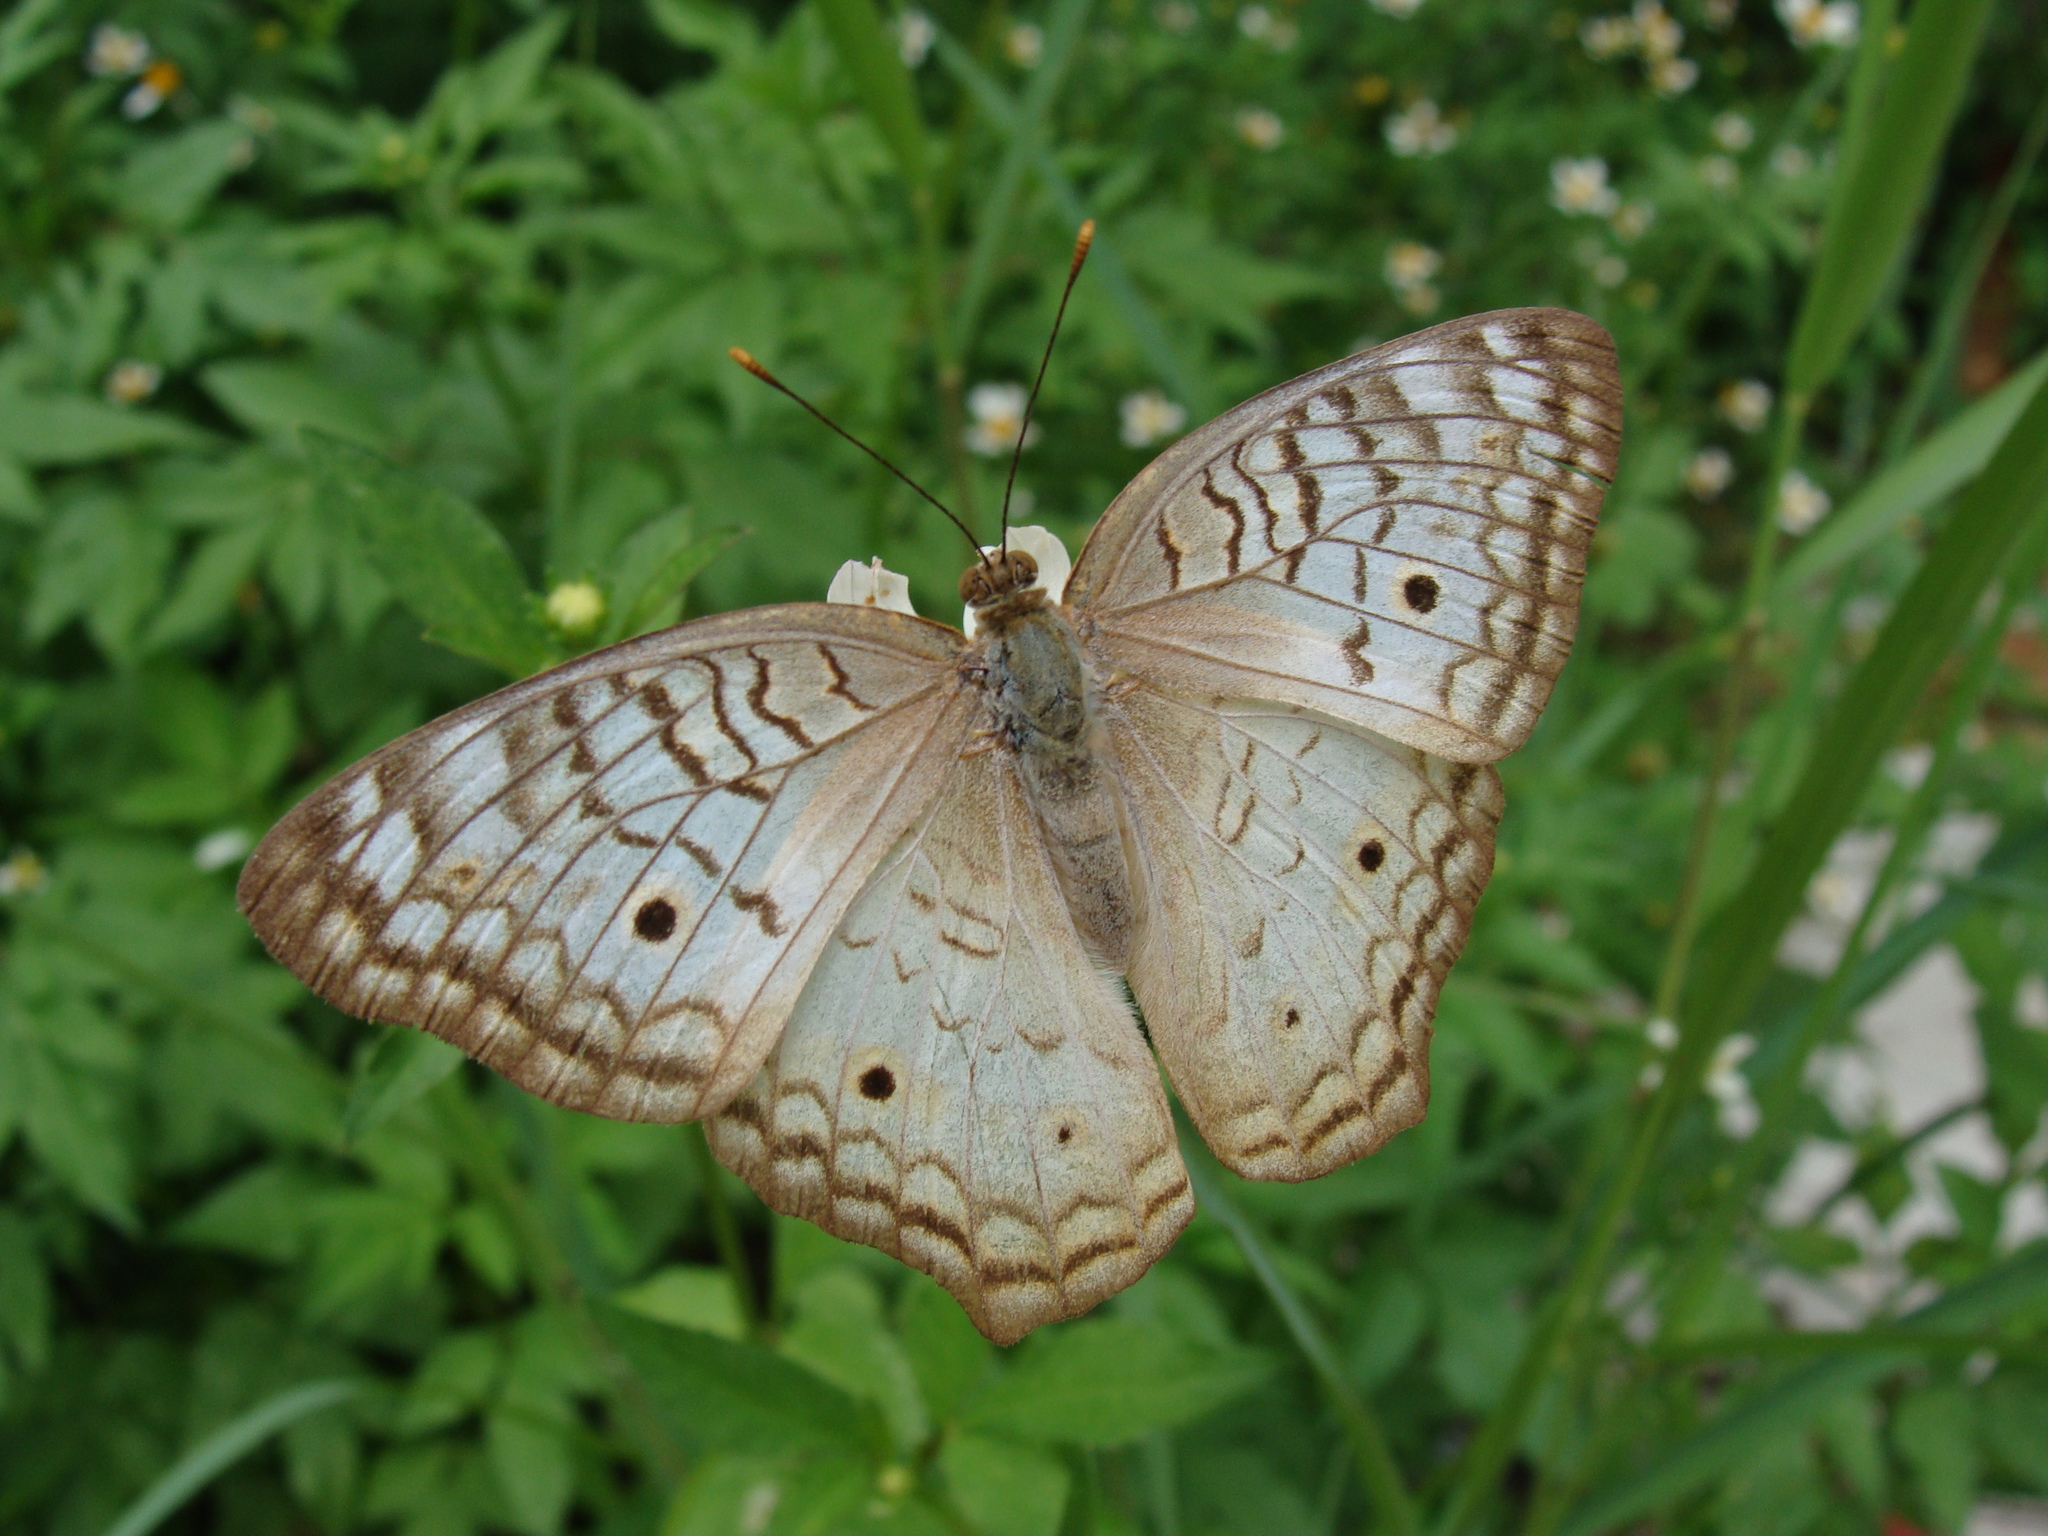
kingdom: Animalia
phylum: Arthropoda
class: Insecta
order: Lepidoptera
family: Nymphalidae
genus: Anartia
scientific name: Anartia jatrophae
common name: White peacock
